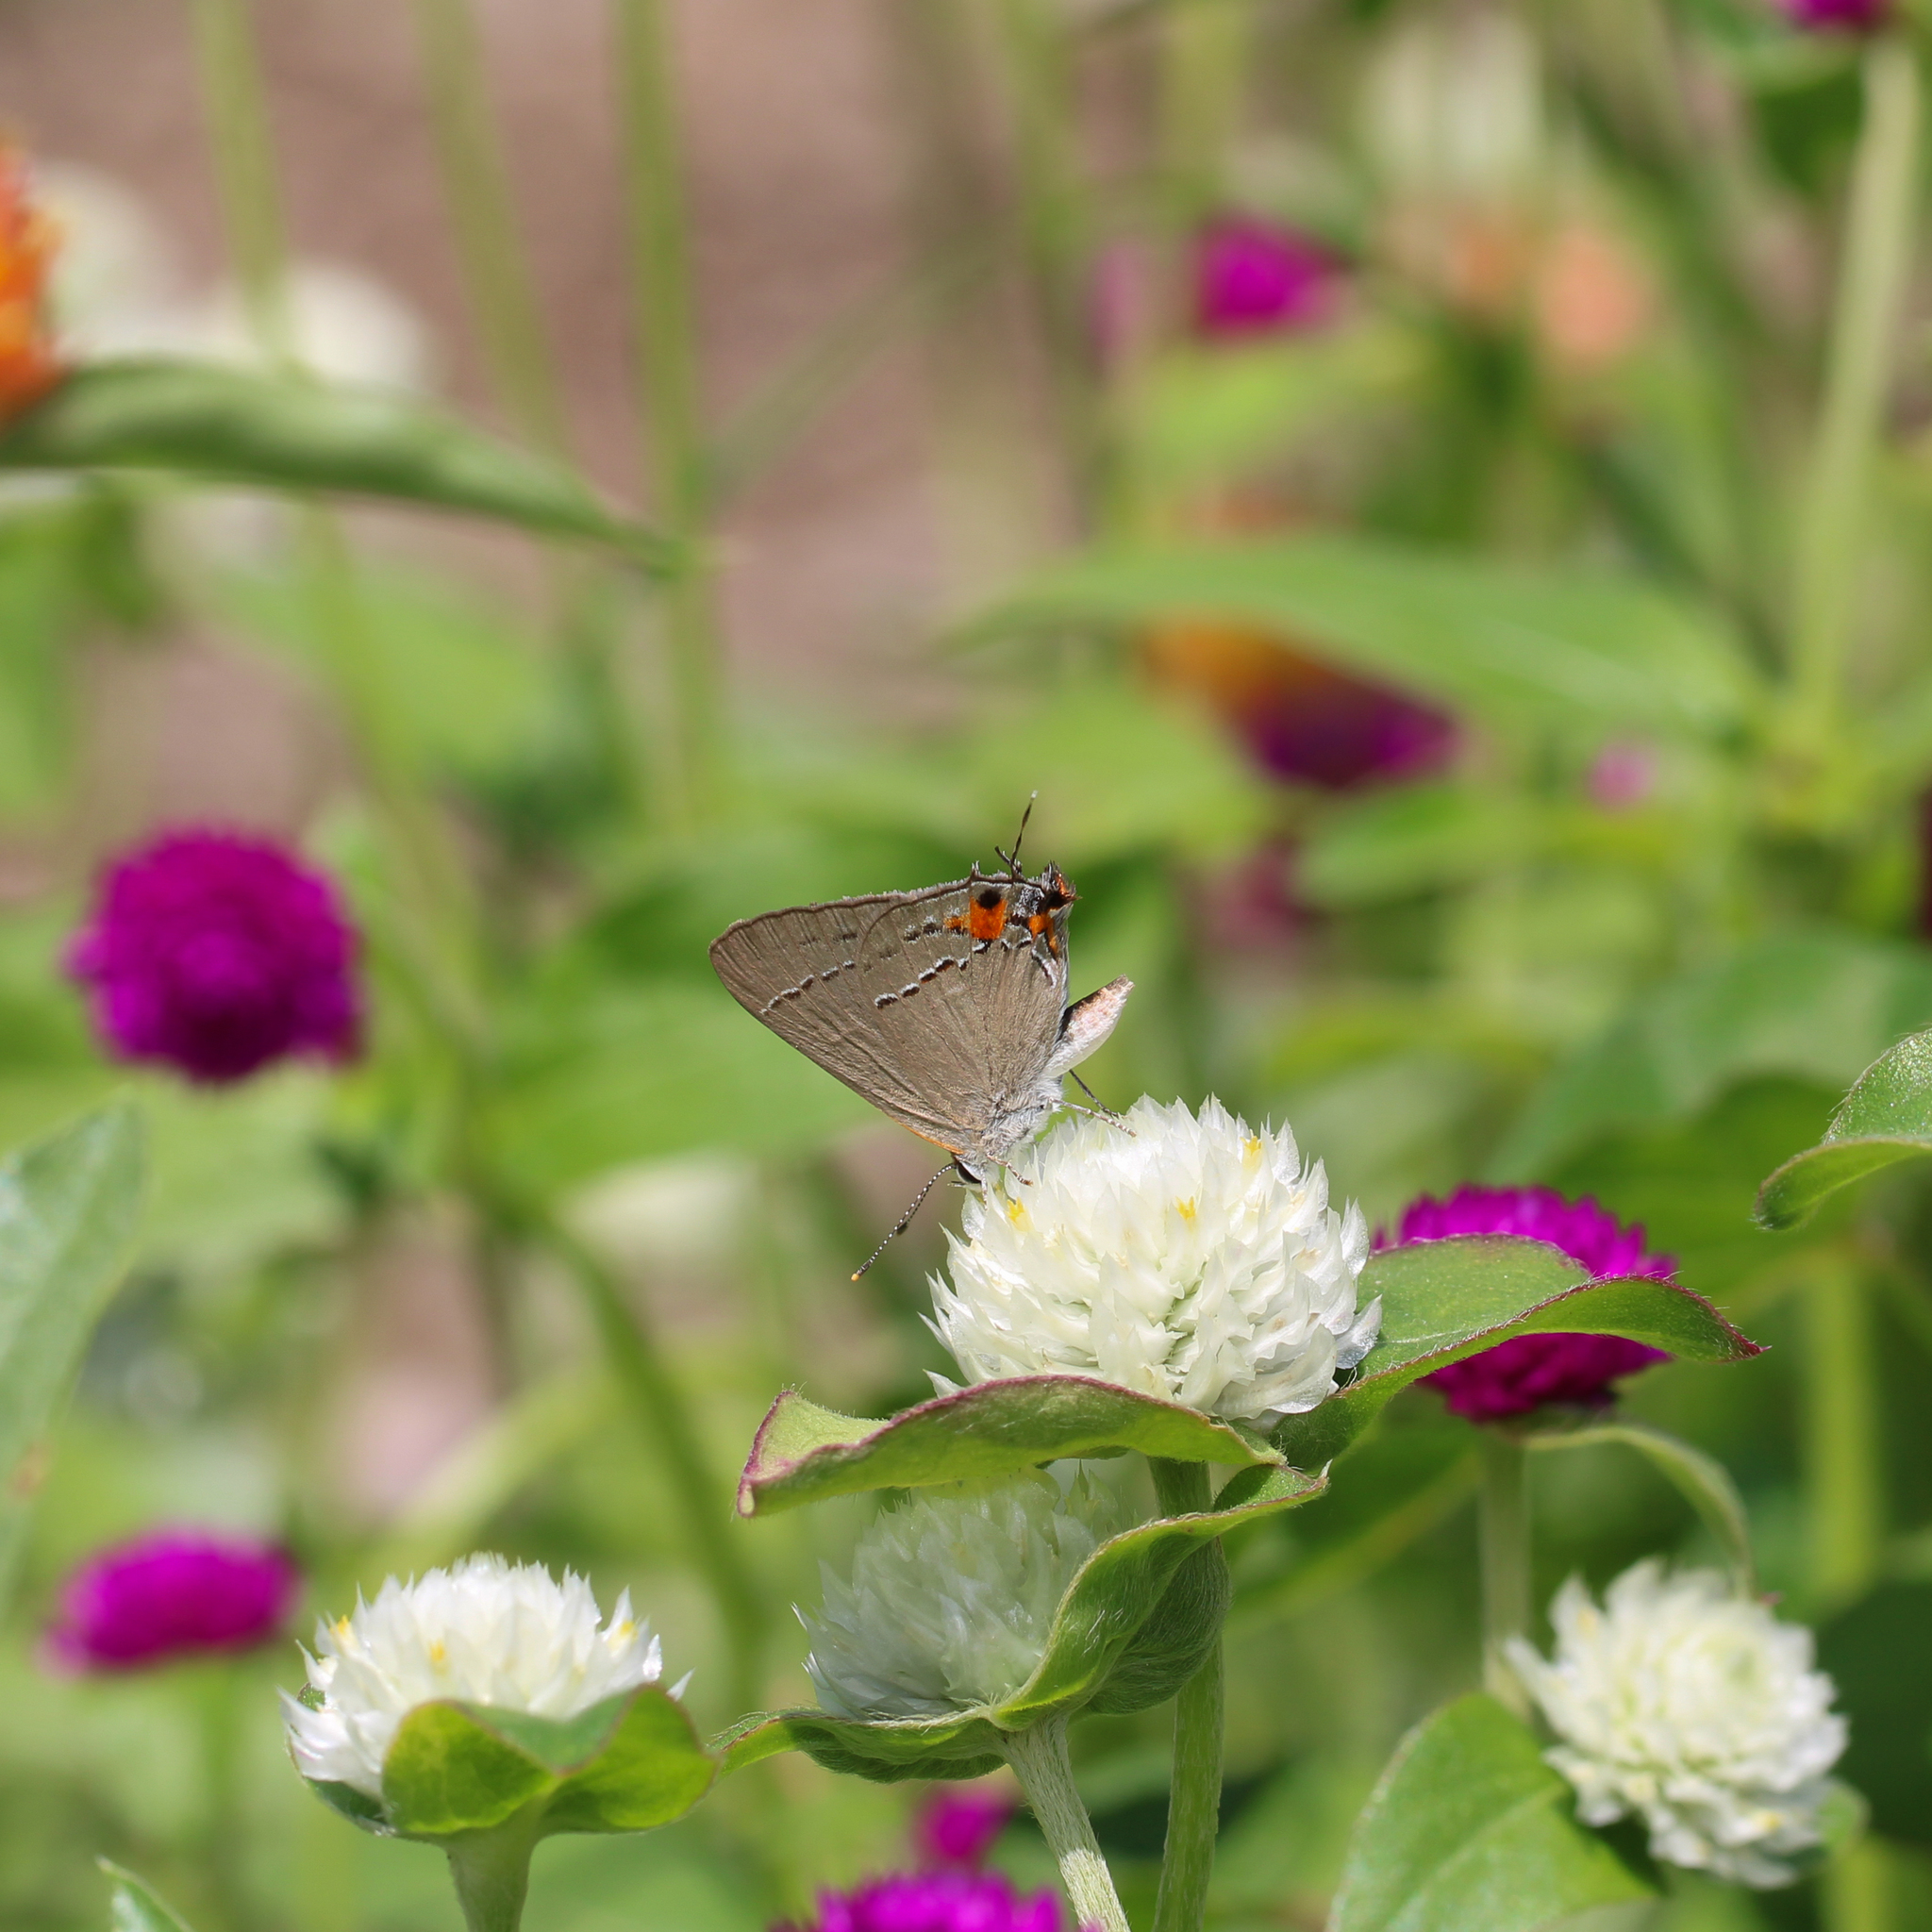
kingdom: Animalia
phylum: Arthropoda
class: Insecta
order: Lepidoptera
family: Lycaenidae
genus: Strymon
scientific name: Strymon melinus
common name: Gray hairstreak
